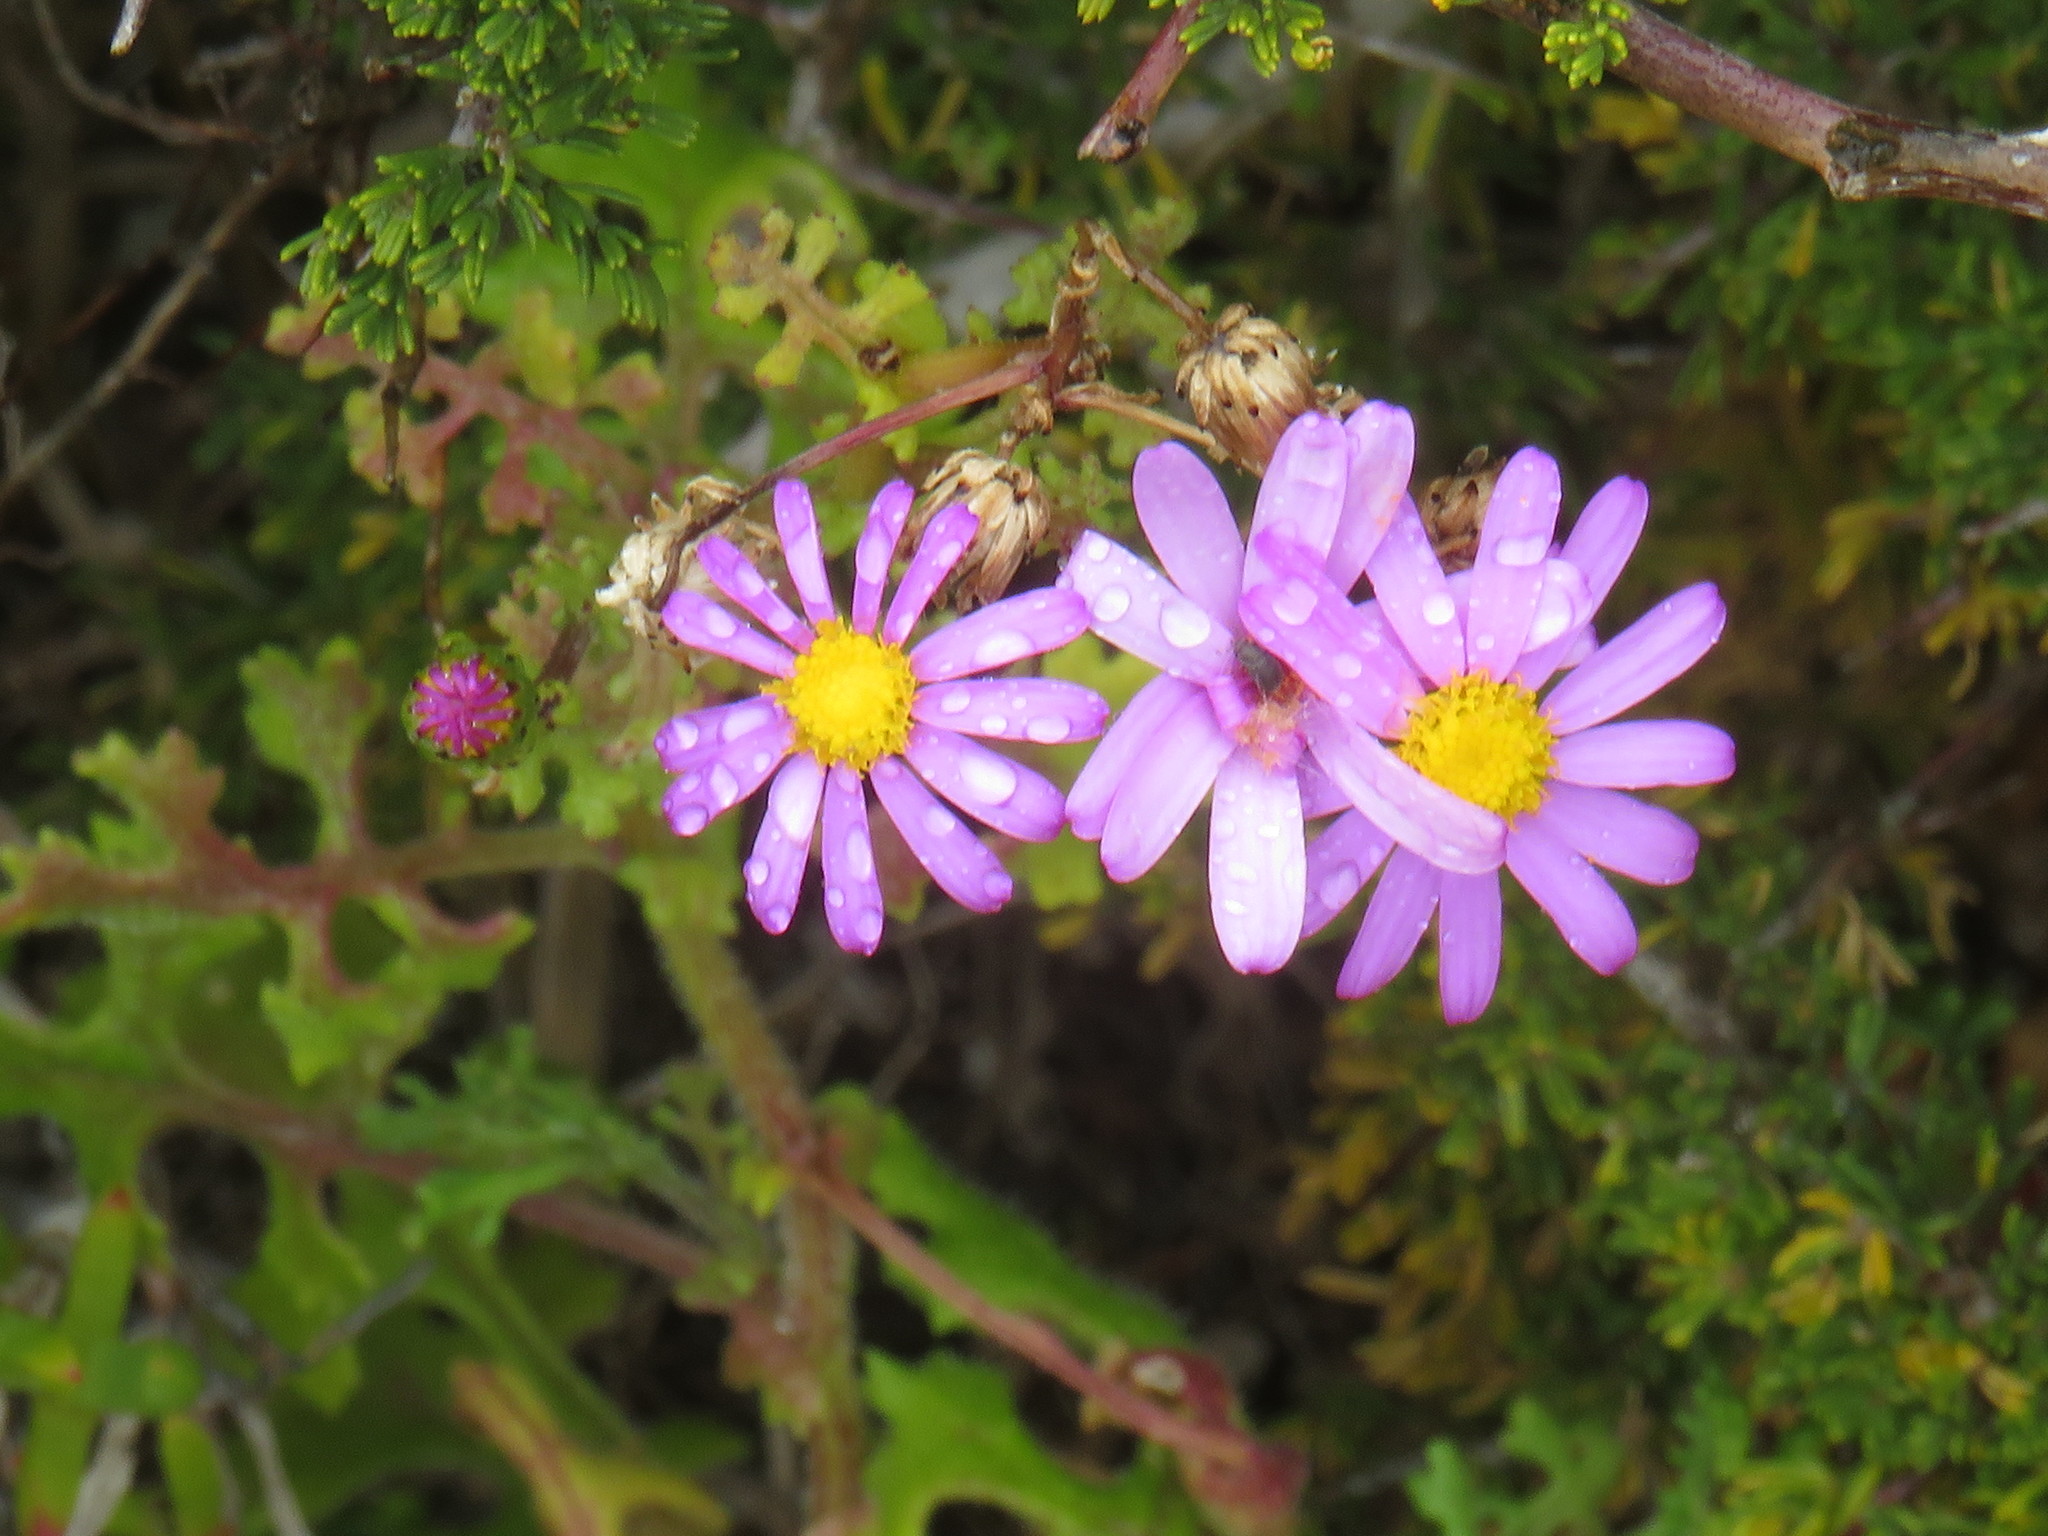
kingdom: Plantae
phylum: Tracheophyta
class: Magnoliopsida
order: Asterales
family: Asteraceae
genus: Senecio
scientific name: Senecio elegans
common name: Purple groundsel
